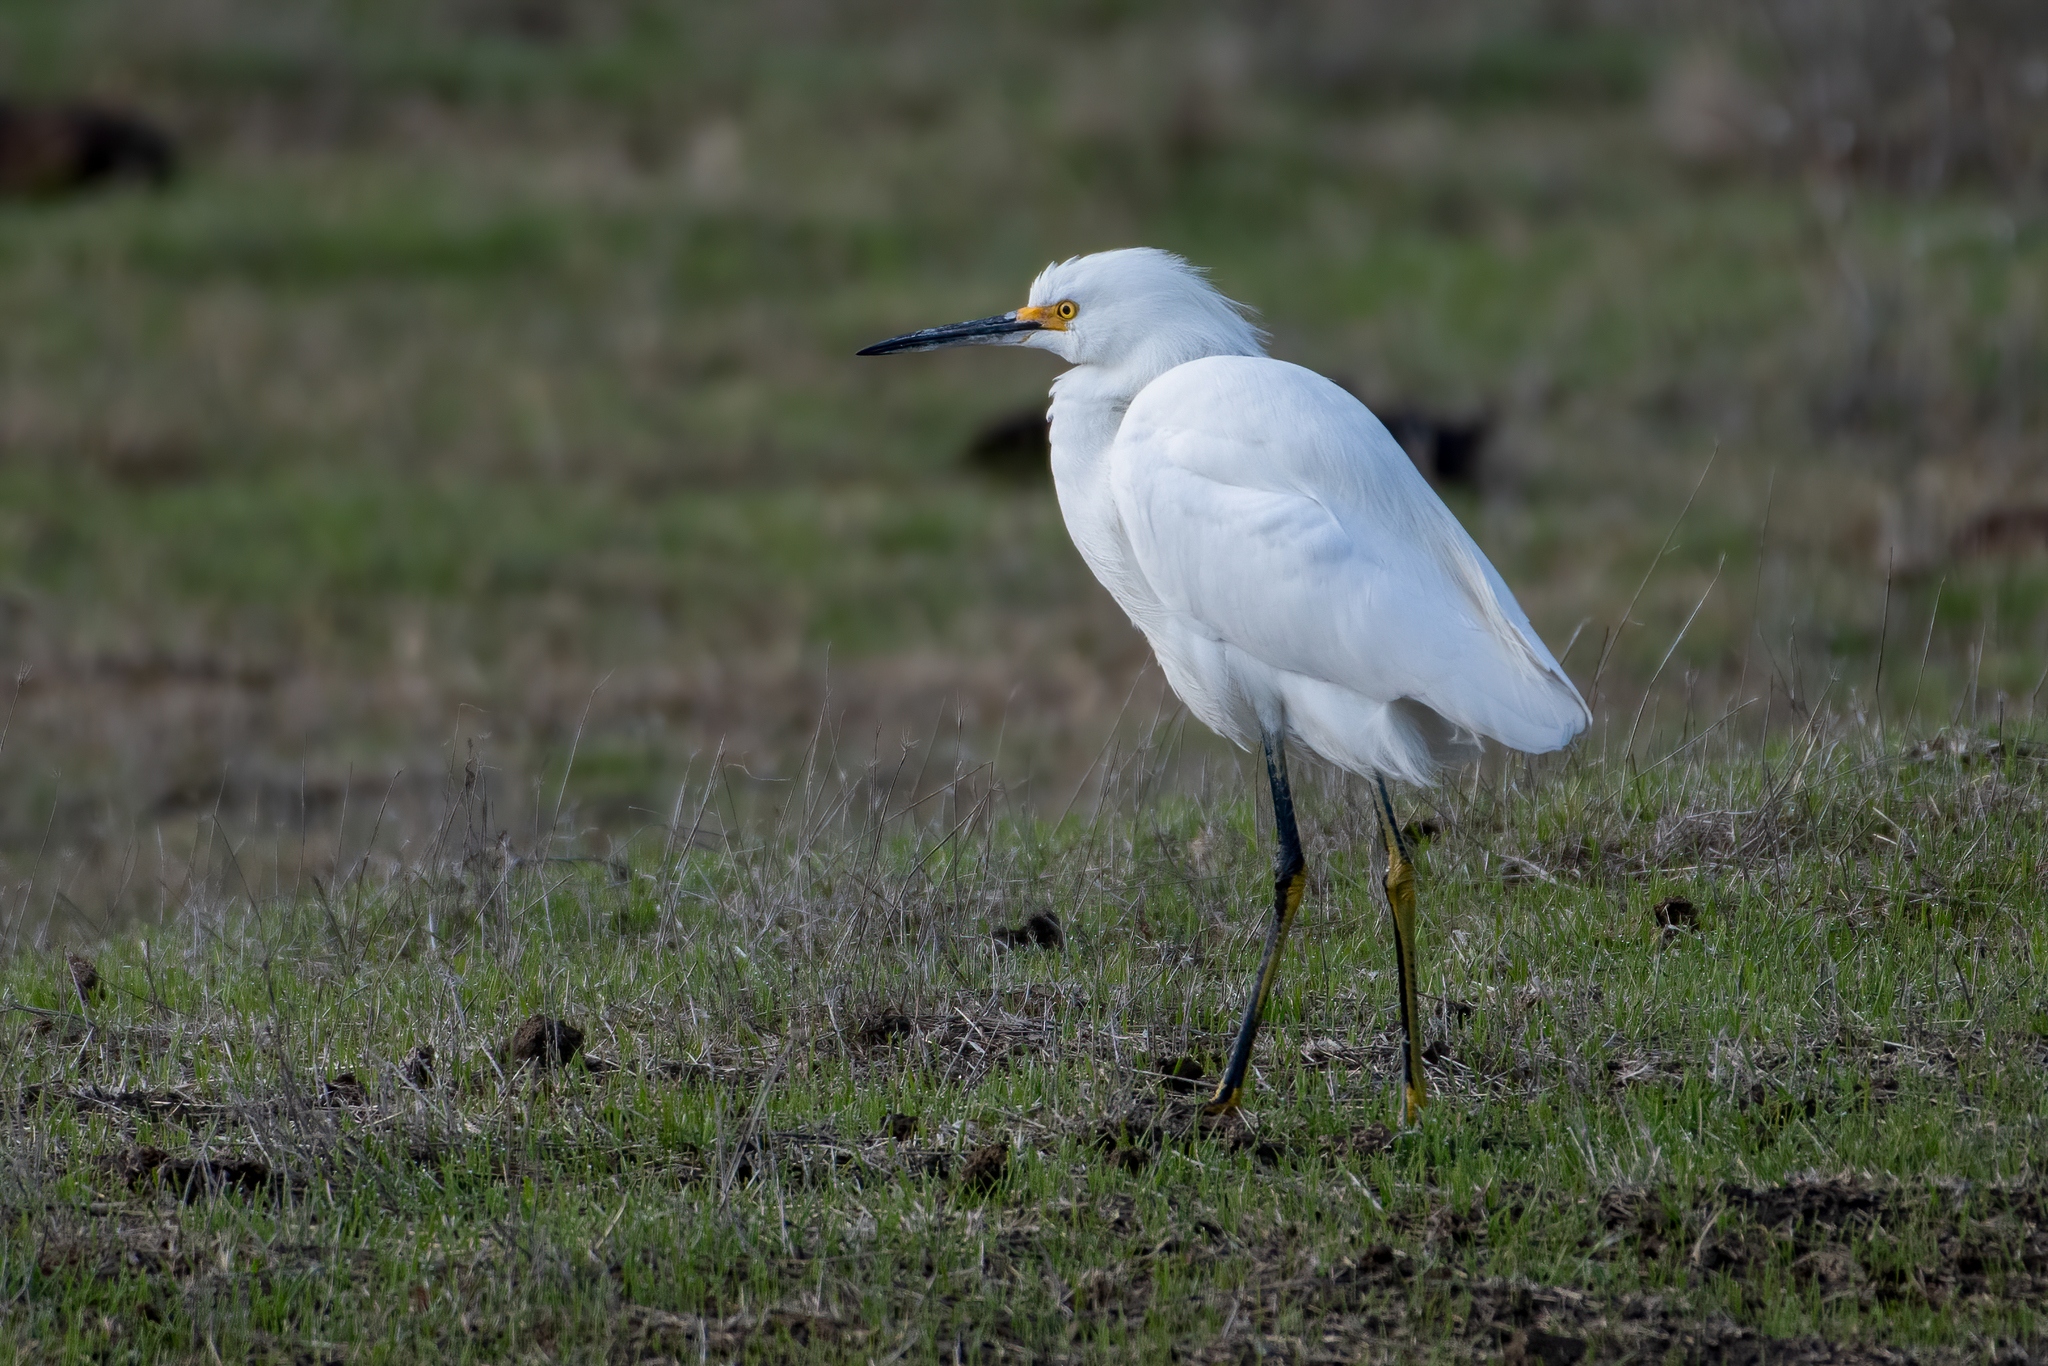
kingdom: Animalia
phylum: Chordata
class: Aves
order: Pelecaniformes
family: Ardeidae
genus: Egretta
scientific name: Egretta thula
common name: Snowy egret
